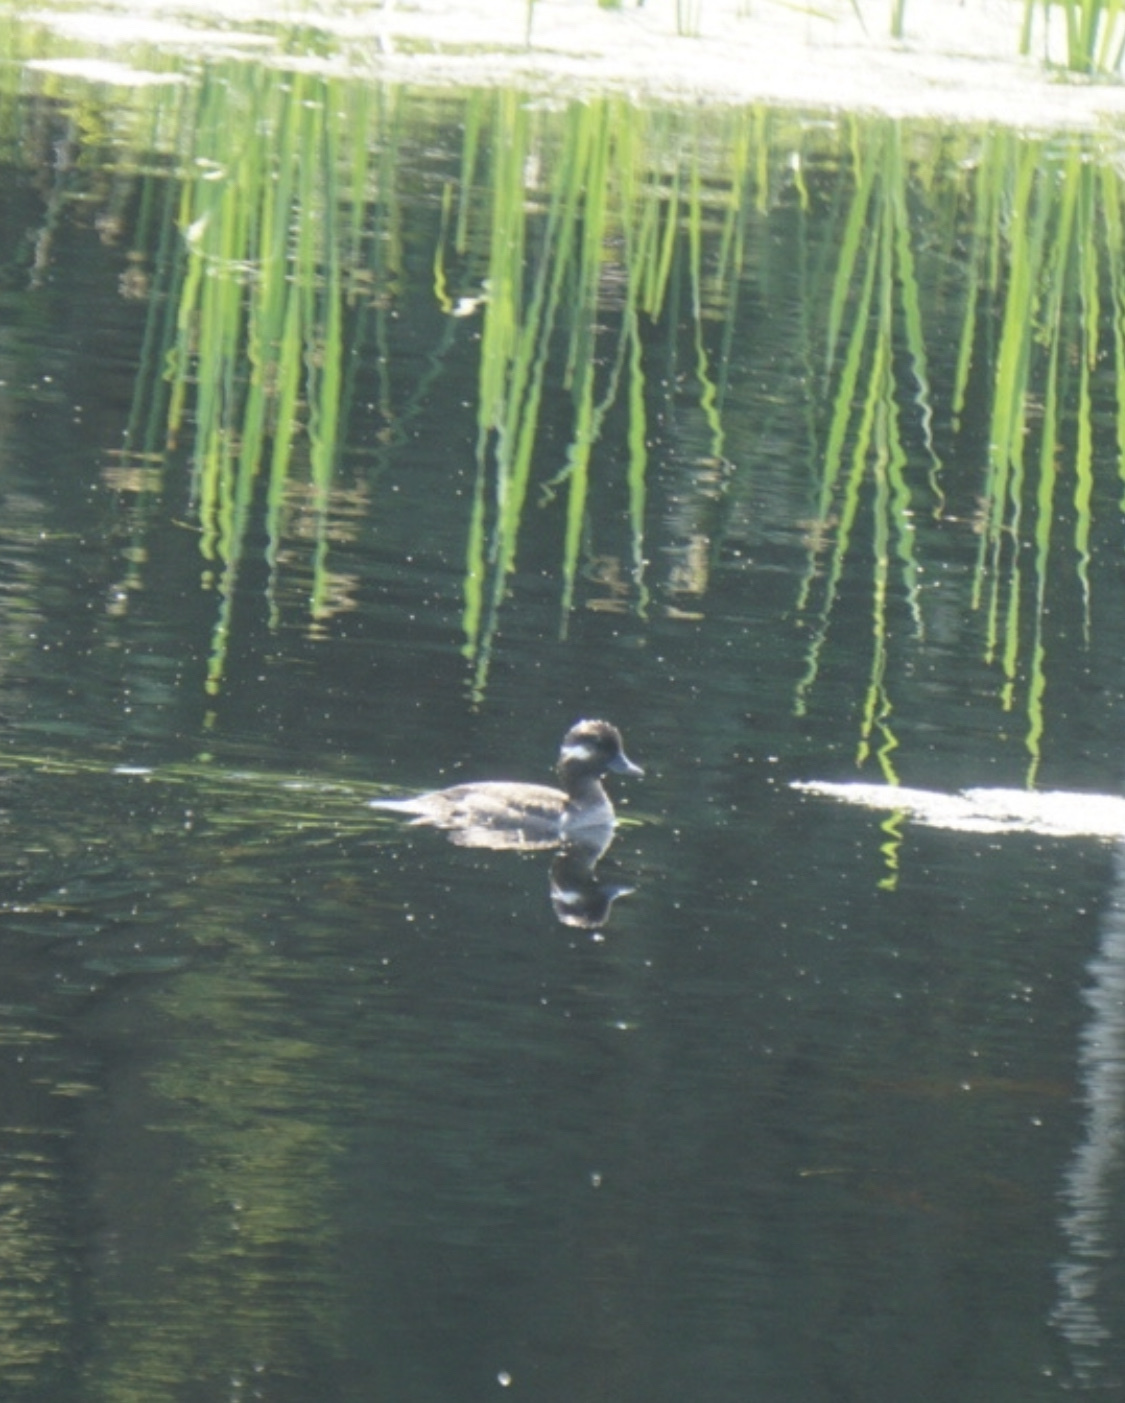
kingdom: Animalia
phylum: Chordata
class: Aves
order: Anseriformes
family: Anatidae
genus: Bucephala
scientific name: Bucephala albeola
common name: Bufflehead
